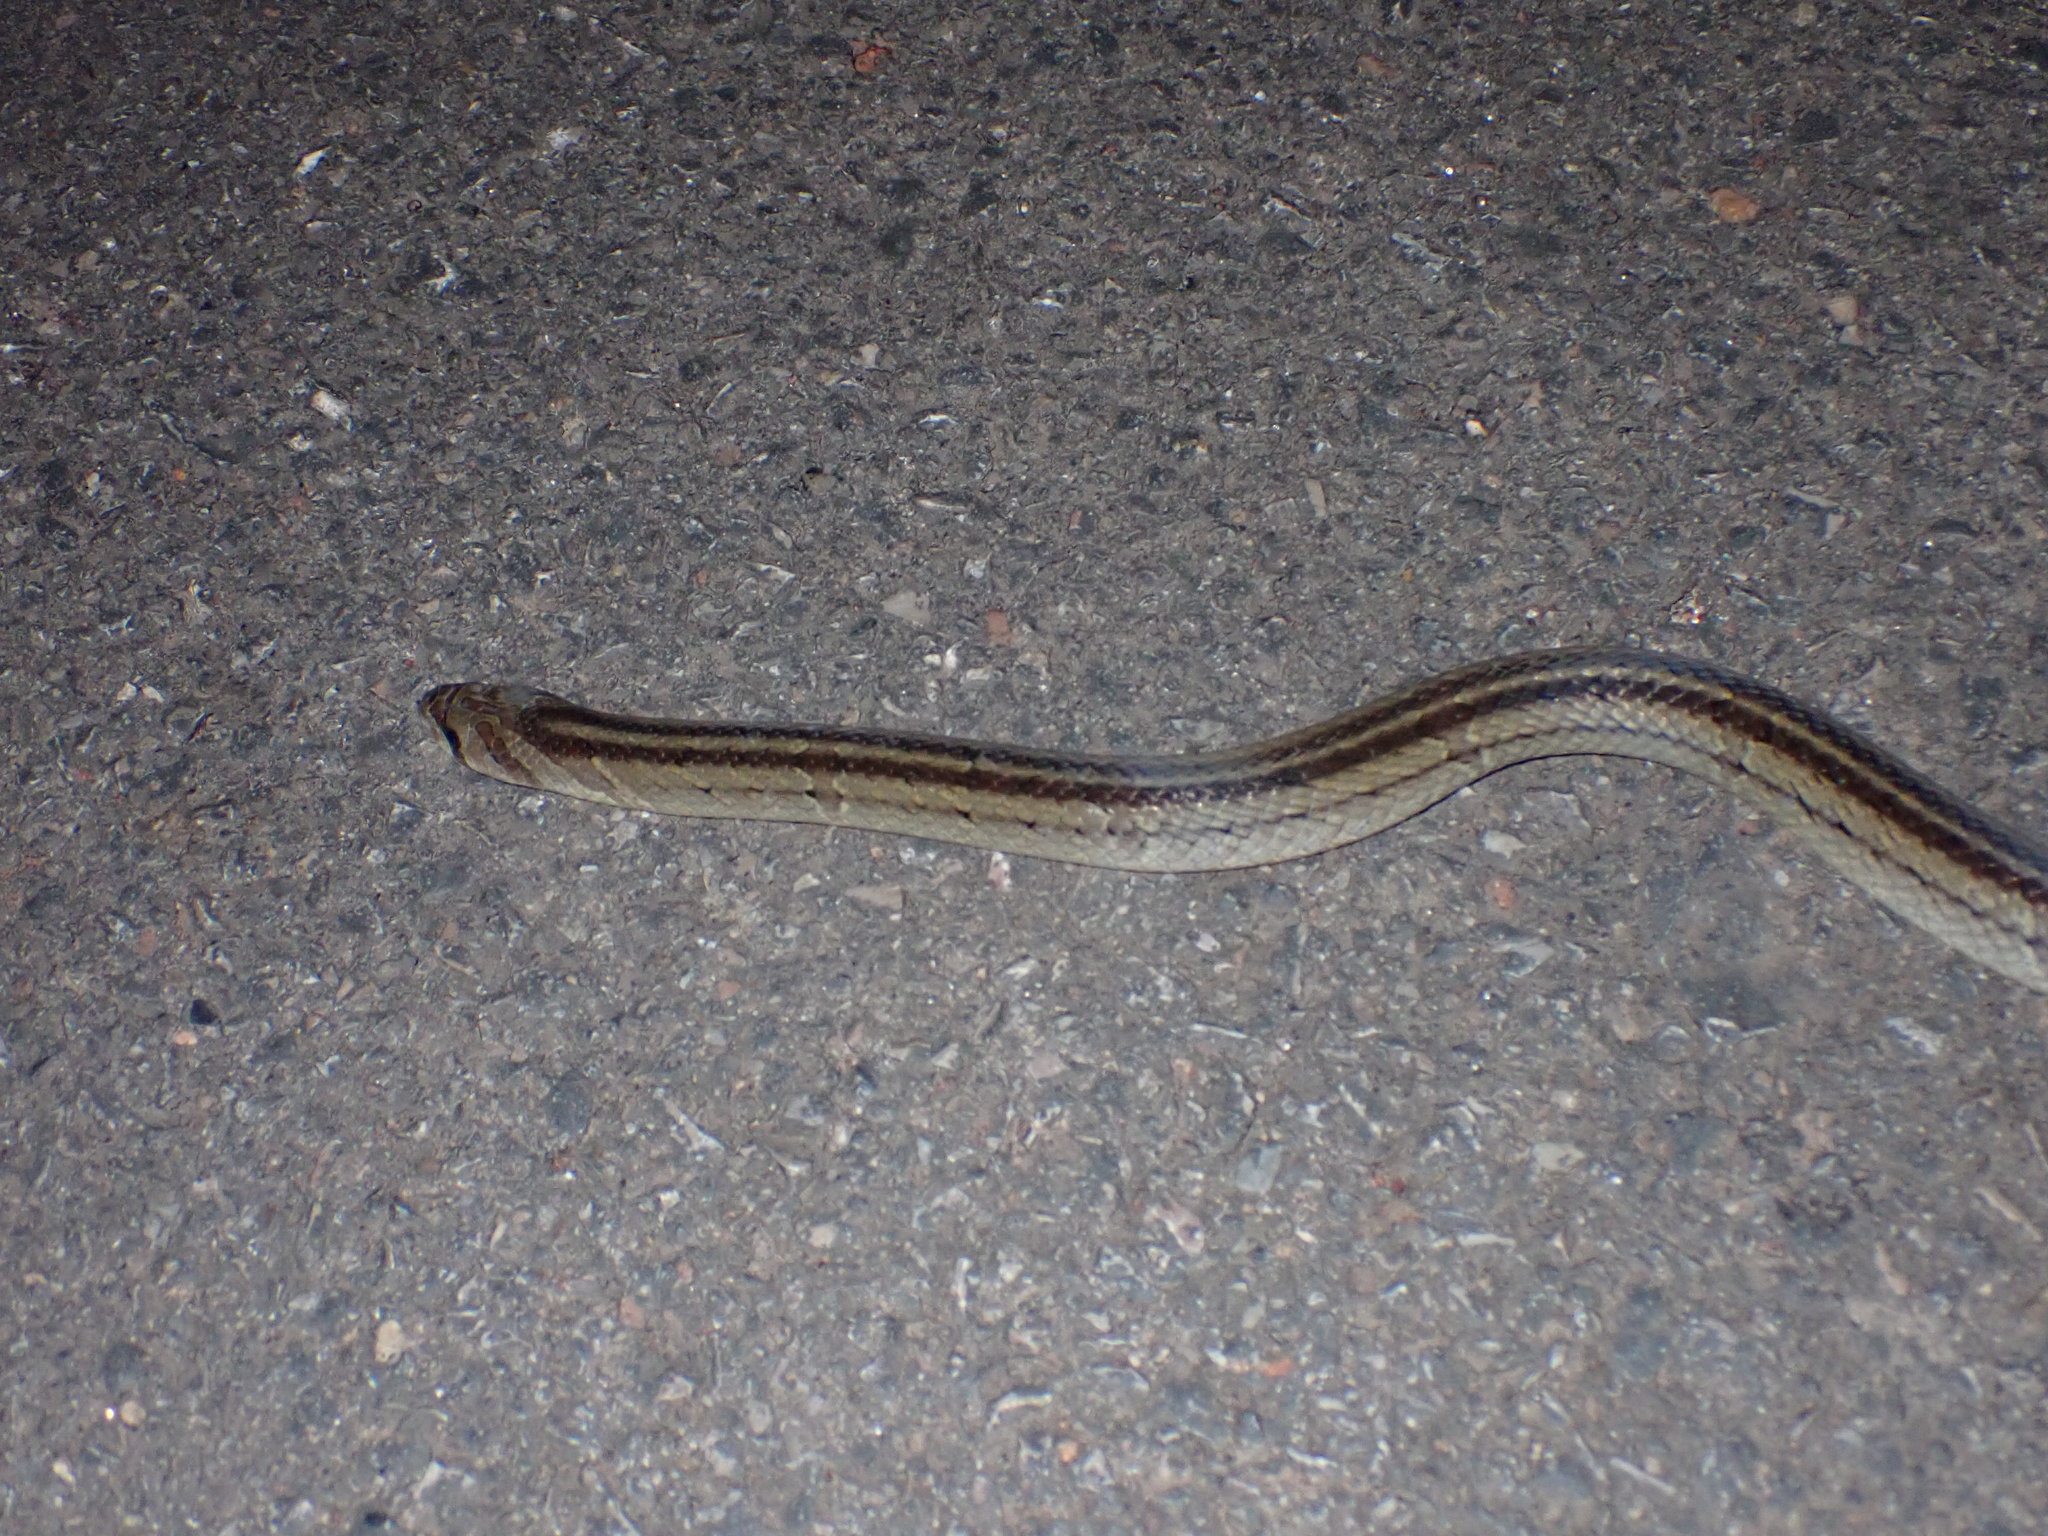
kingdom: Animalia
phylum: Chordata
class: Squamata
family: Colubridae
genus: Oligodon
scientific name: Oligodon fasciolatus
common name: Fasciolated kukri snake
